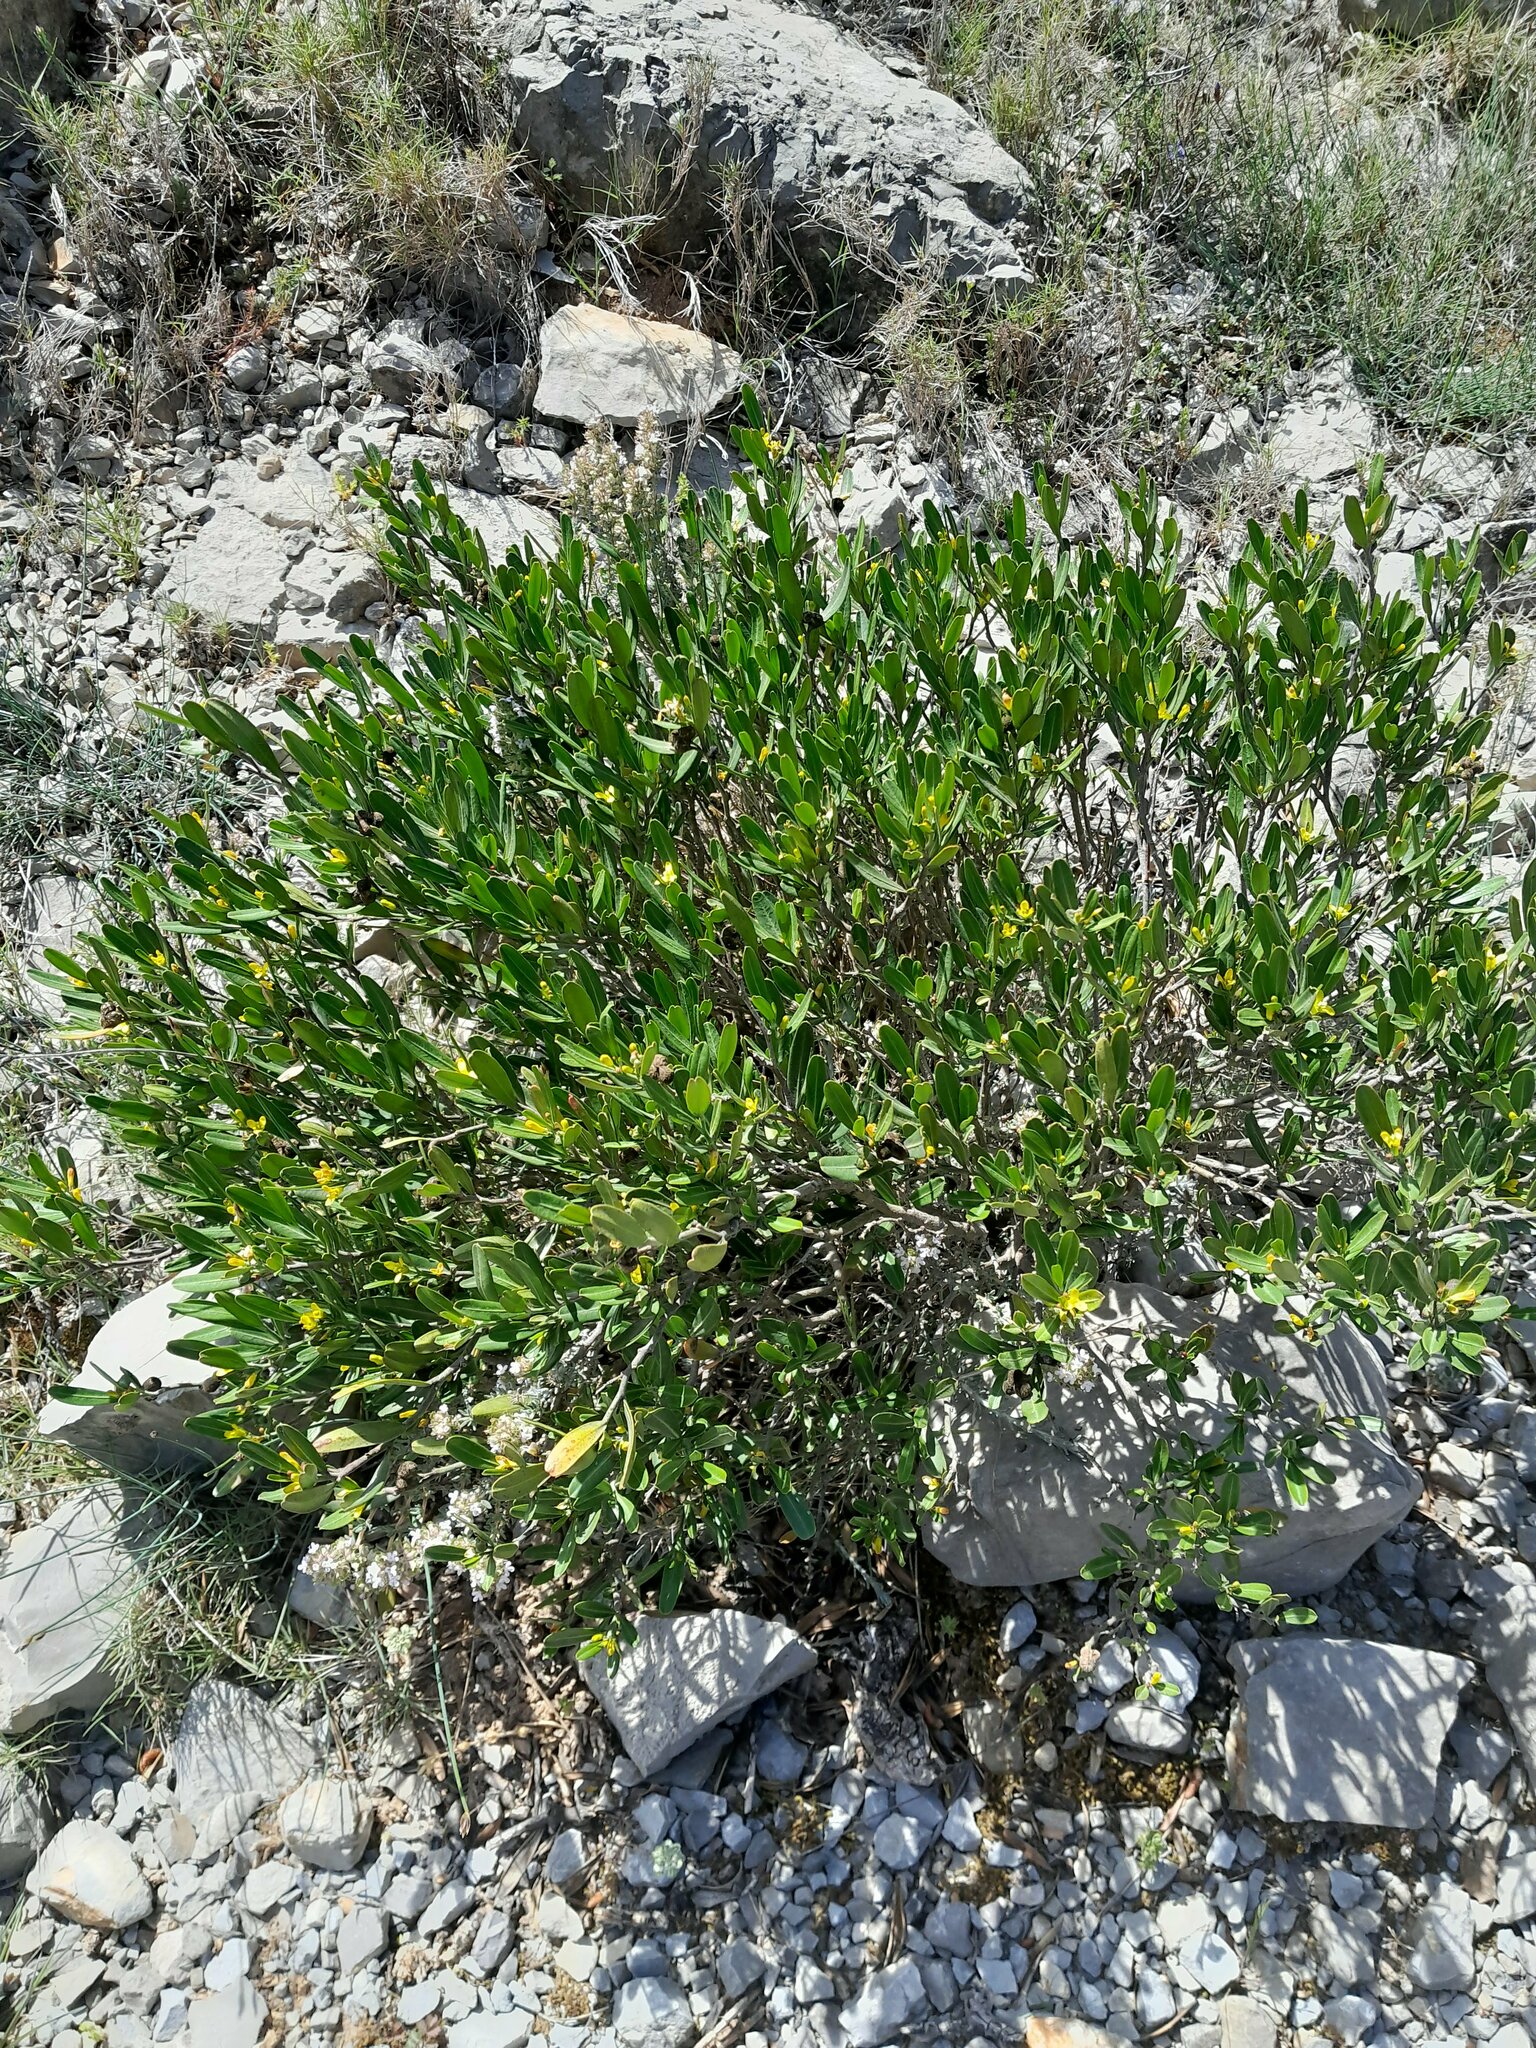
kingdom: Plantae
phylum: Tracheophyta
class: Magnoliopsida
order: Sapindales
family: Rutaceae
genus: Cneorum
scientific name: Cneorum tricoccon
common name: Spurge olive
